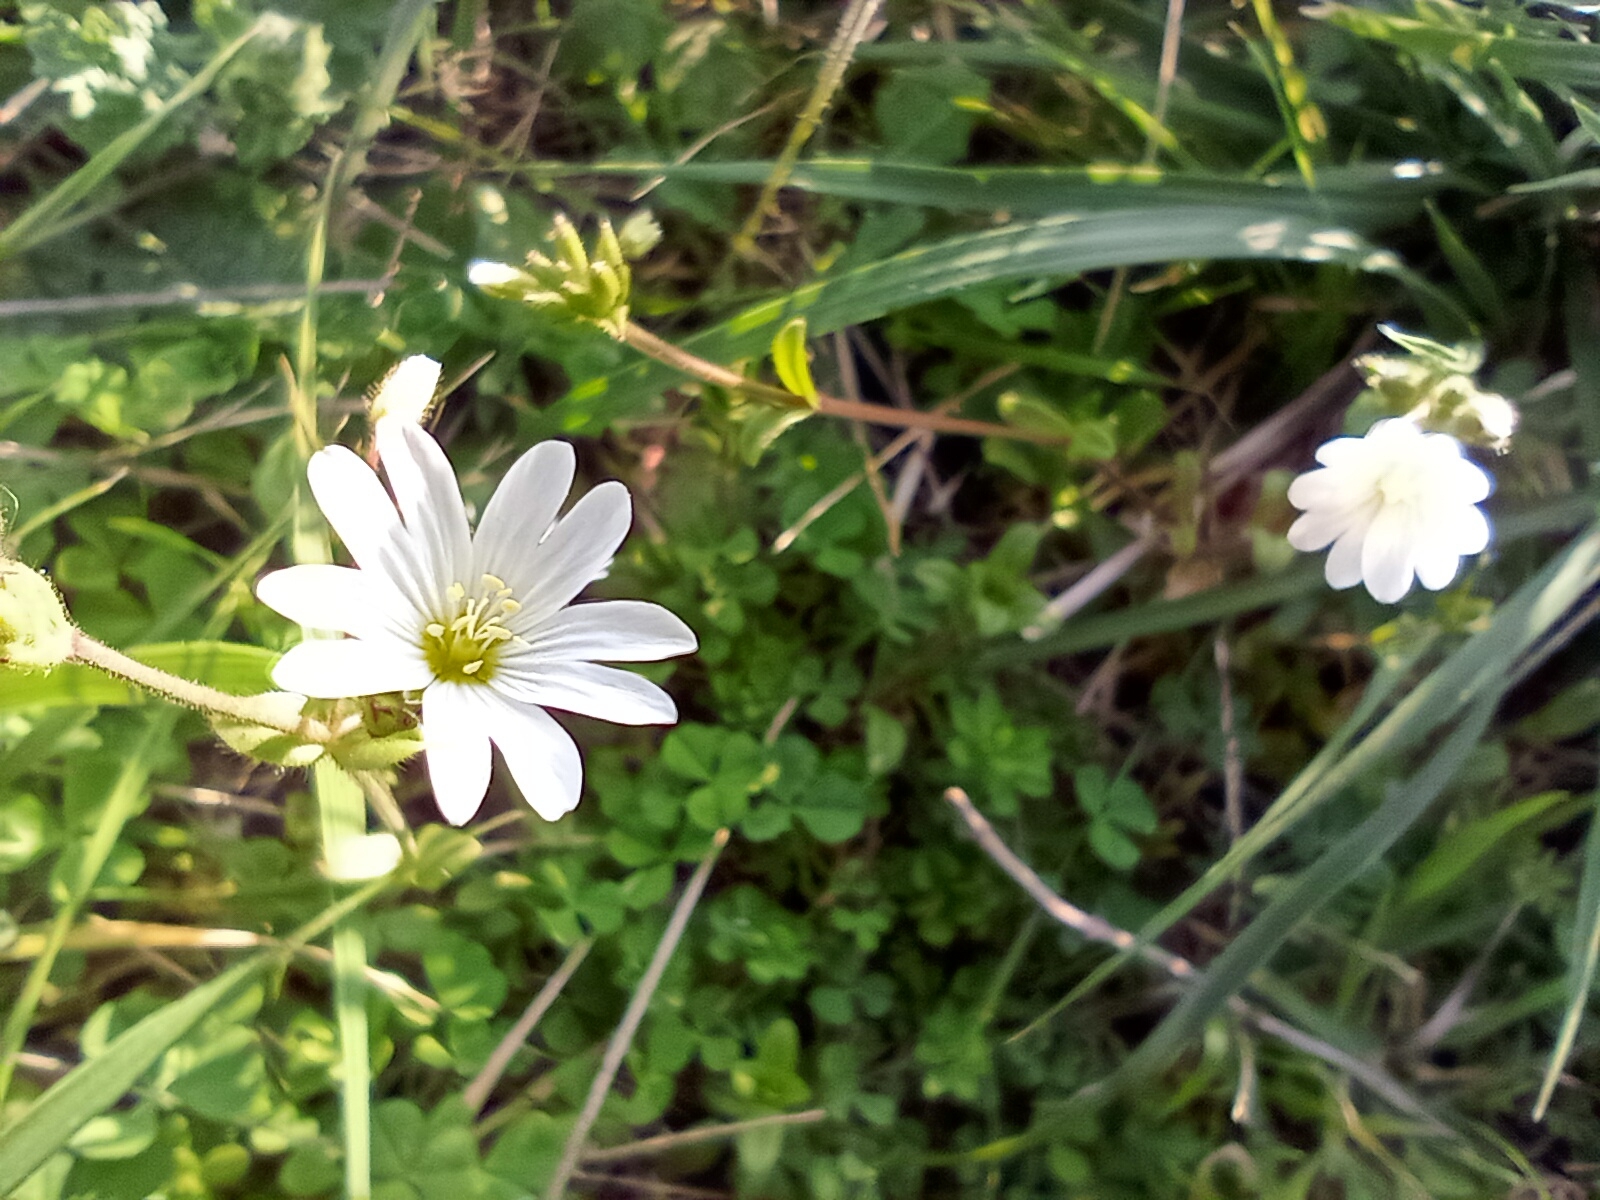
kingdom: Plantae
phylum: Tracheophyta
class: Magnoliopsida
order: Caryophyllales
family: Caryophyllaceae
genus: Cerastium
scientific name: Cerastium arvense
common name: Field mouse-ear
